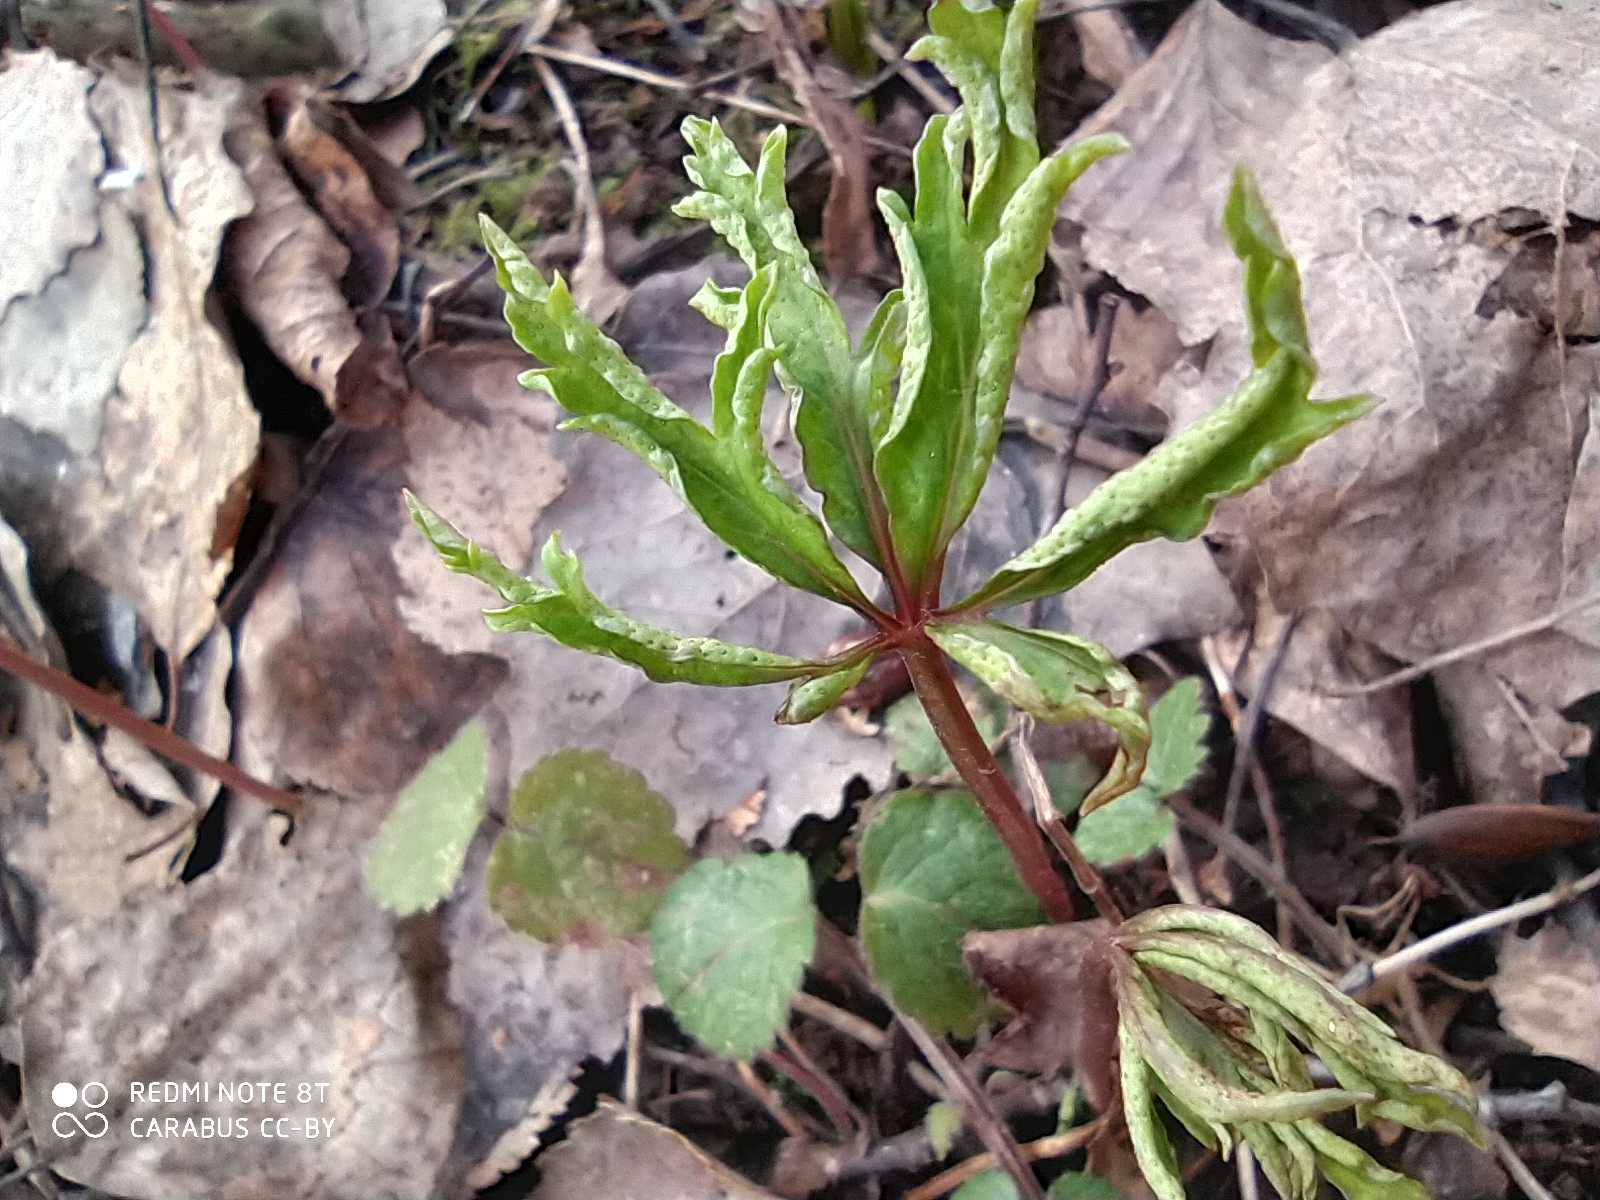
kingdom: Plantae
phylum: Tracheophyta
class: Magnoliopsida
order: Ranunculales
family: Ranunculaceae
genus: Anemone
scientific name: Anemone ranunculoides
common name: Yellow anemone
